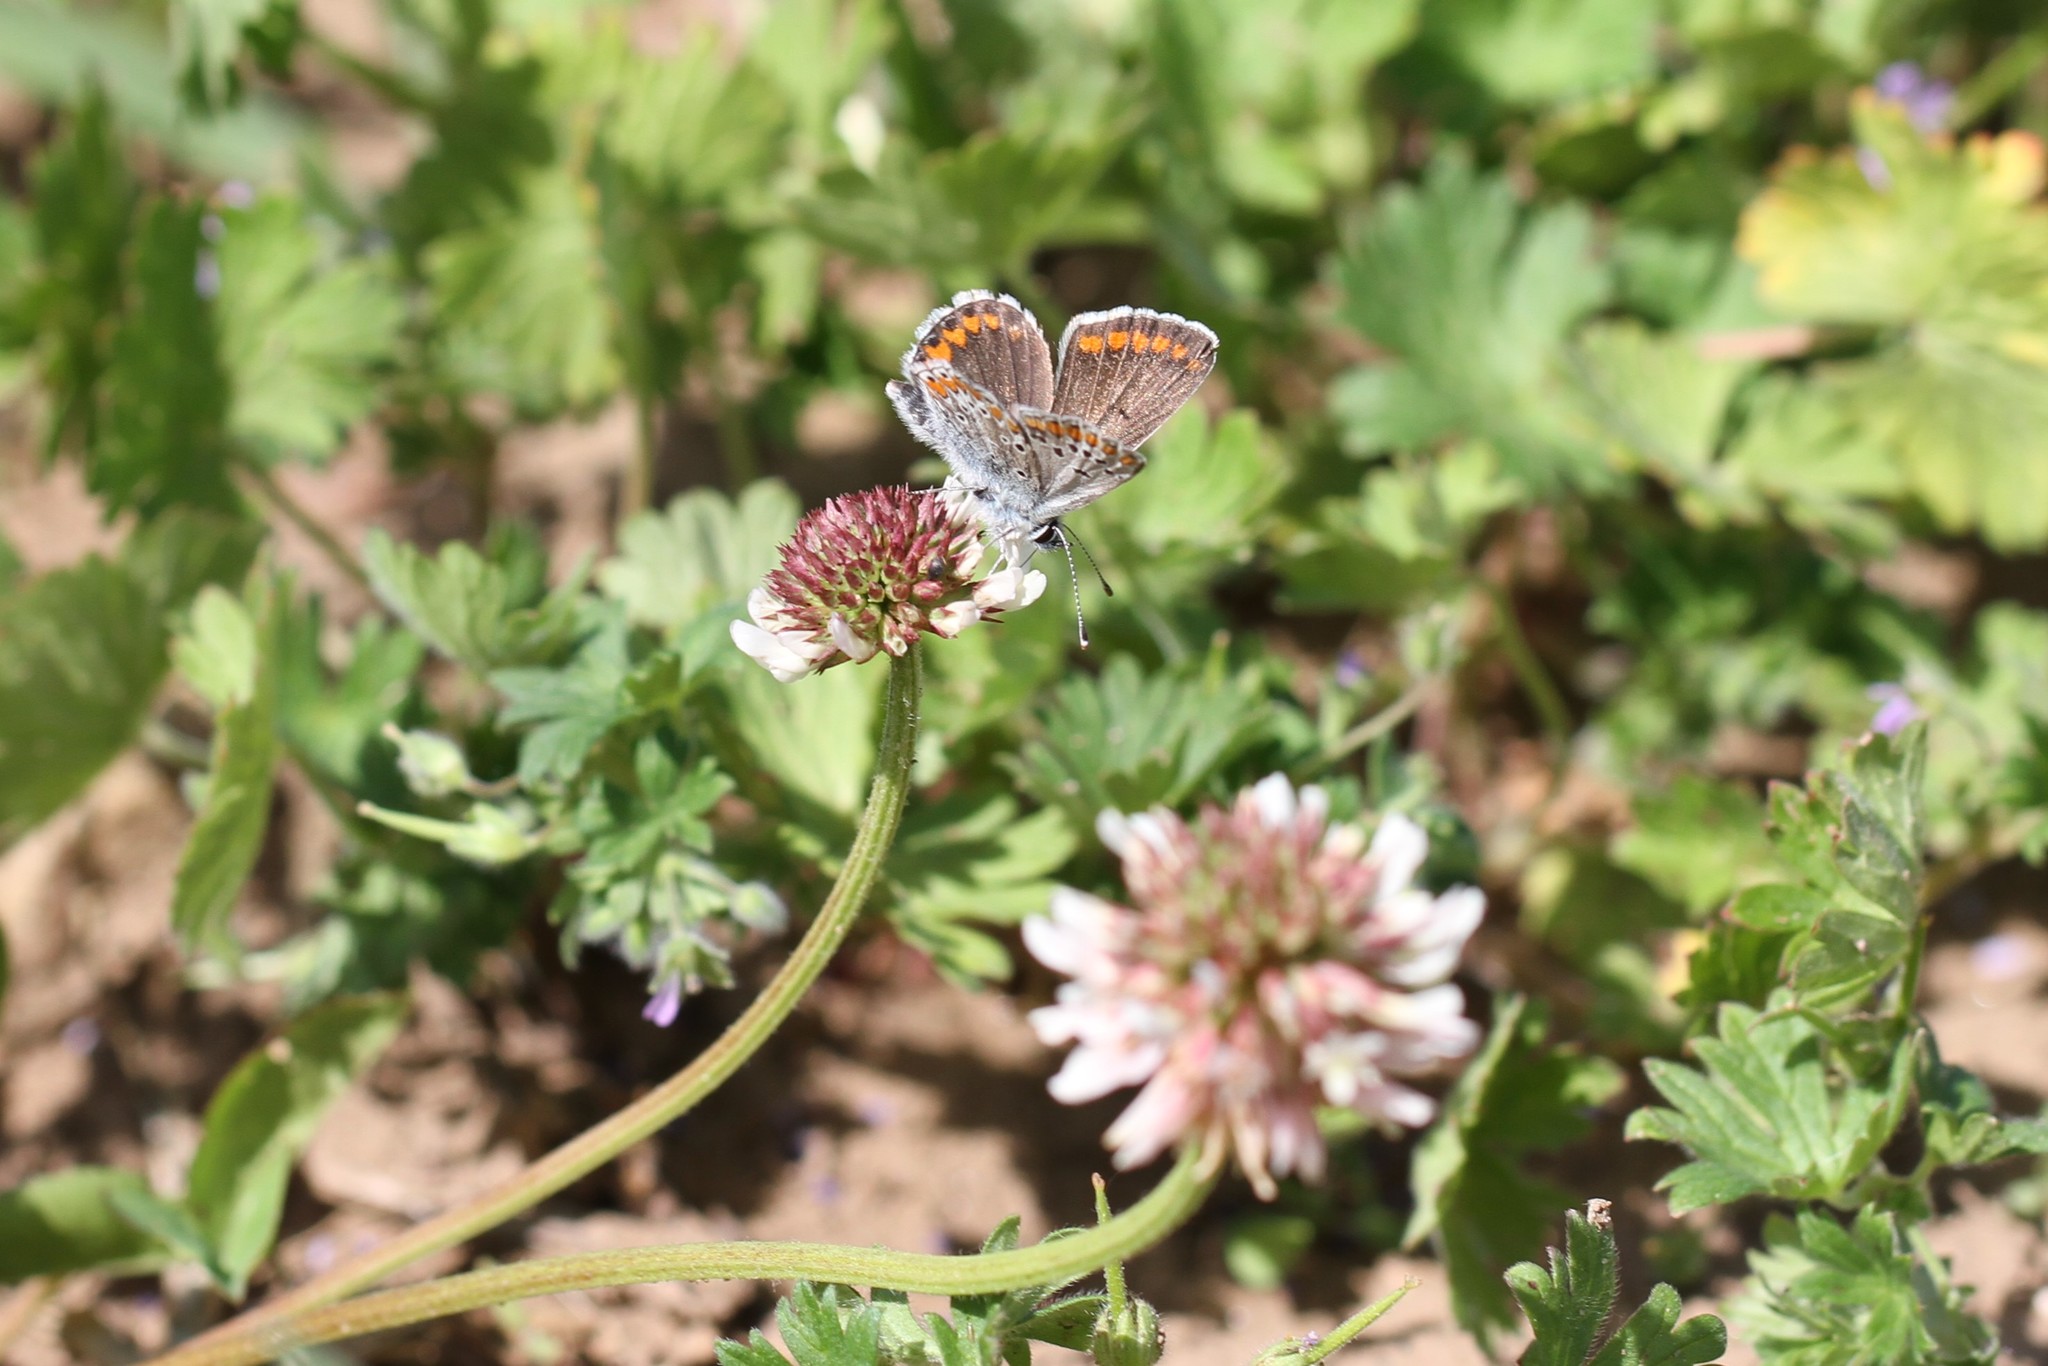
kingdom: Animalia
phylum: Arthropoda
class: Insecta
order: Lepidoptera
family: Lycaenidae
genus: Aricia
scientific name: Aricia agestis
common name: Brown argus
